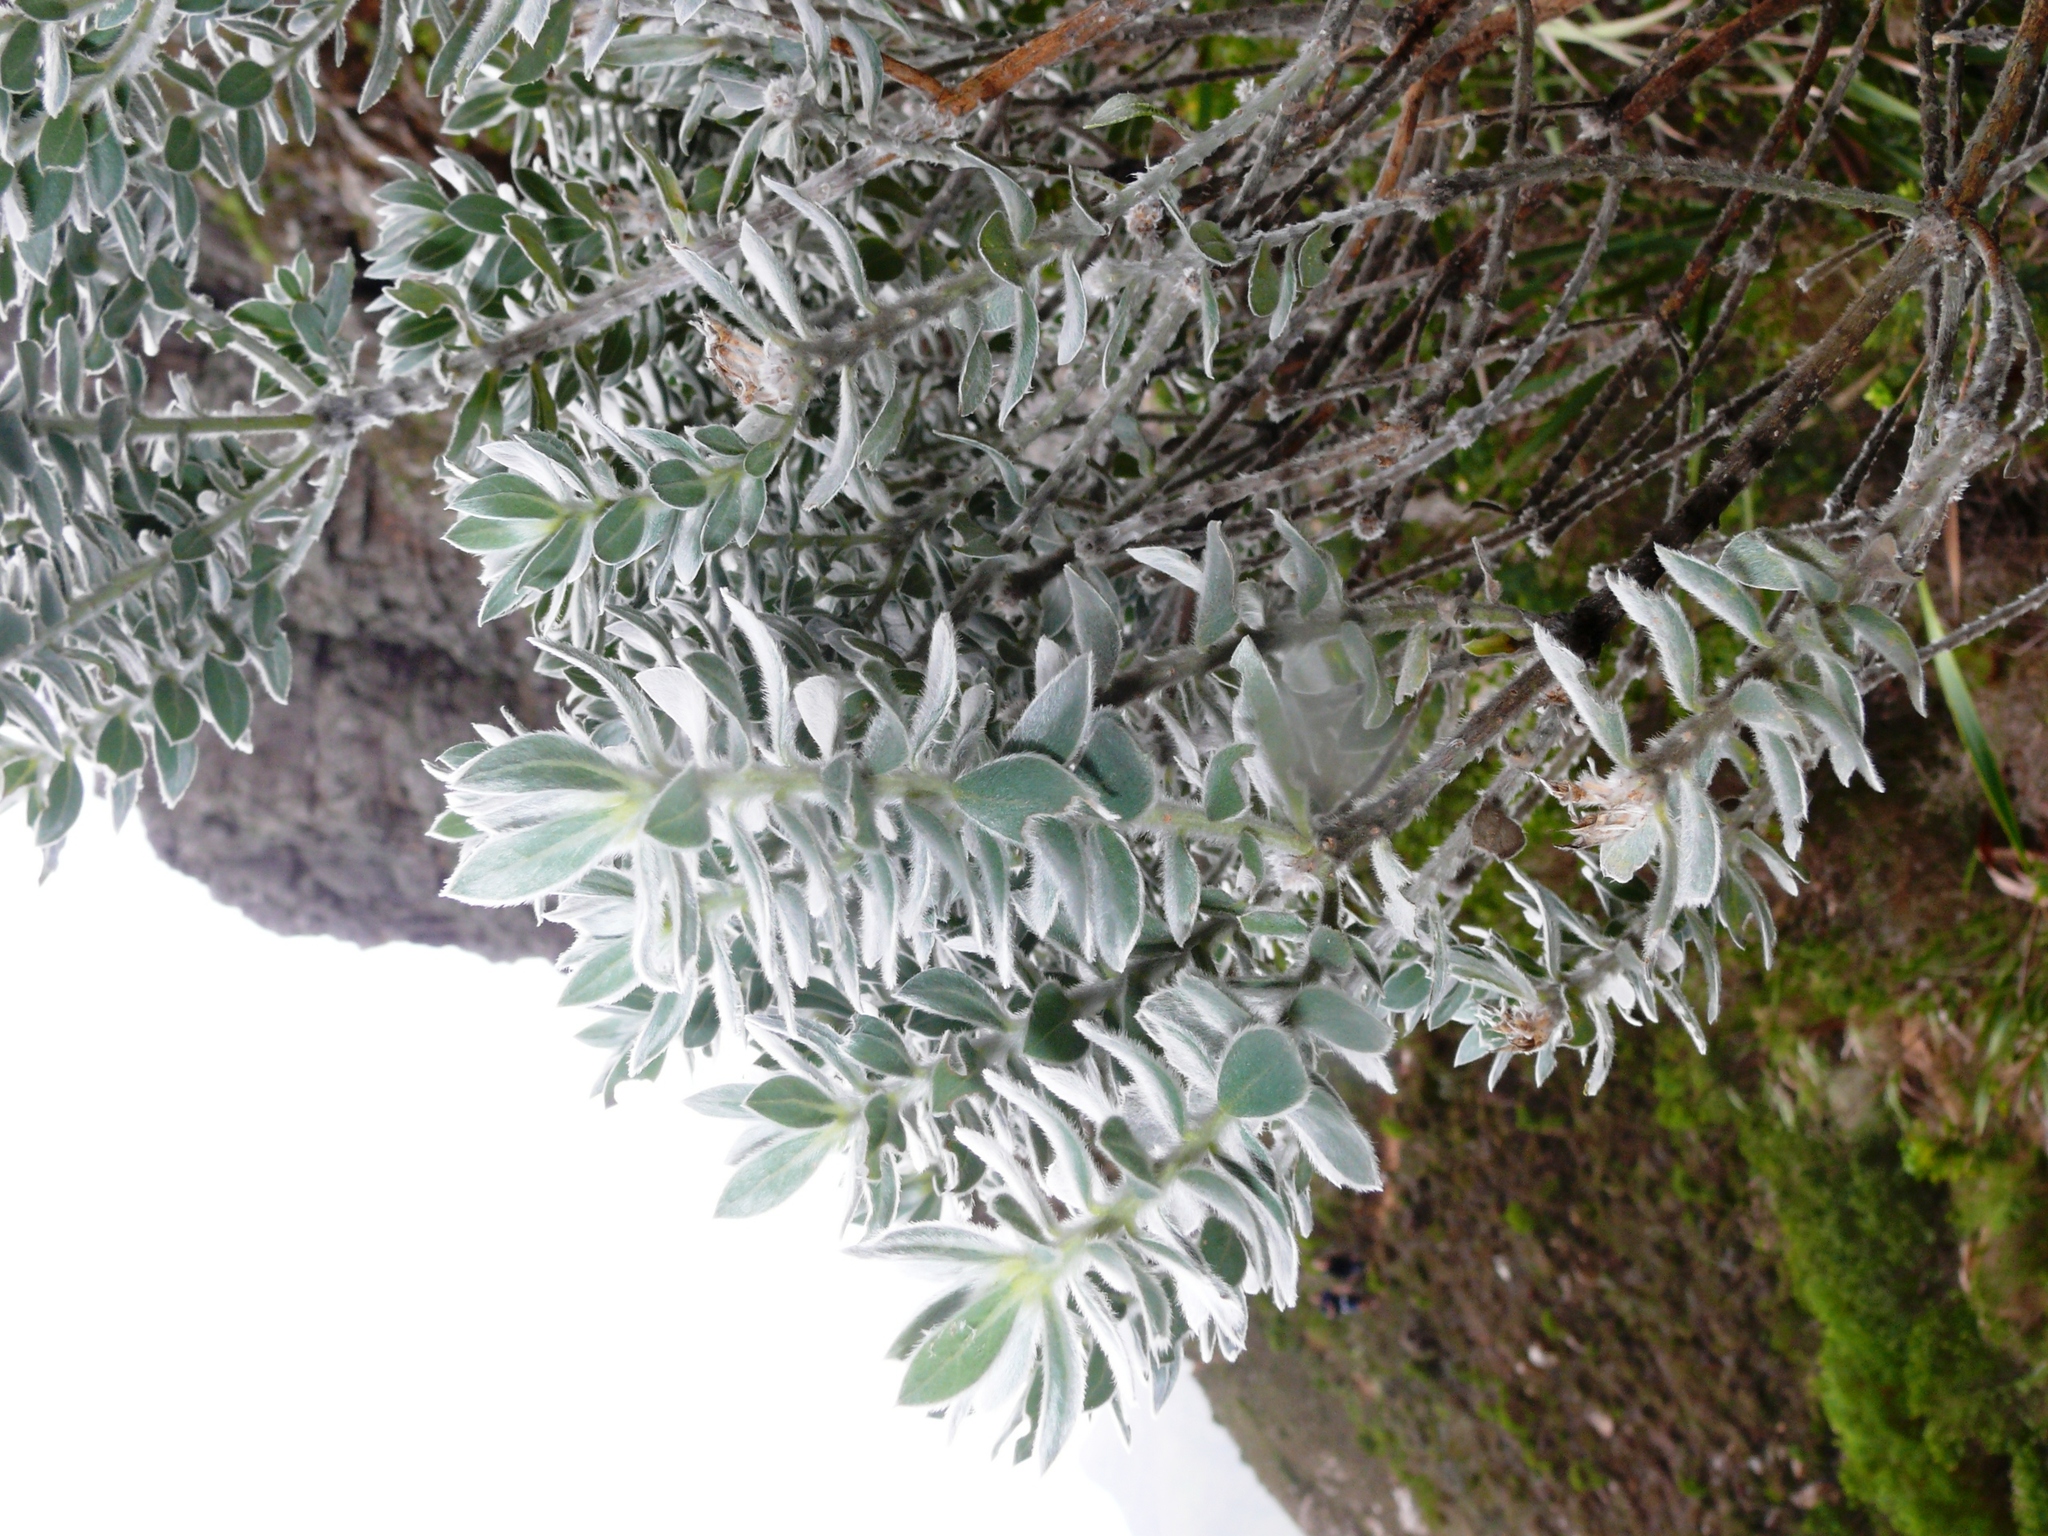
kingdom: Plantae
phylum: Tracheophyta
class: Magnoliopsida
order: Fabales
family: Fabaceae
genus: Xiphotheca
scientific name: Xiphotheca fruticosa
